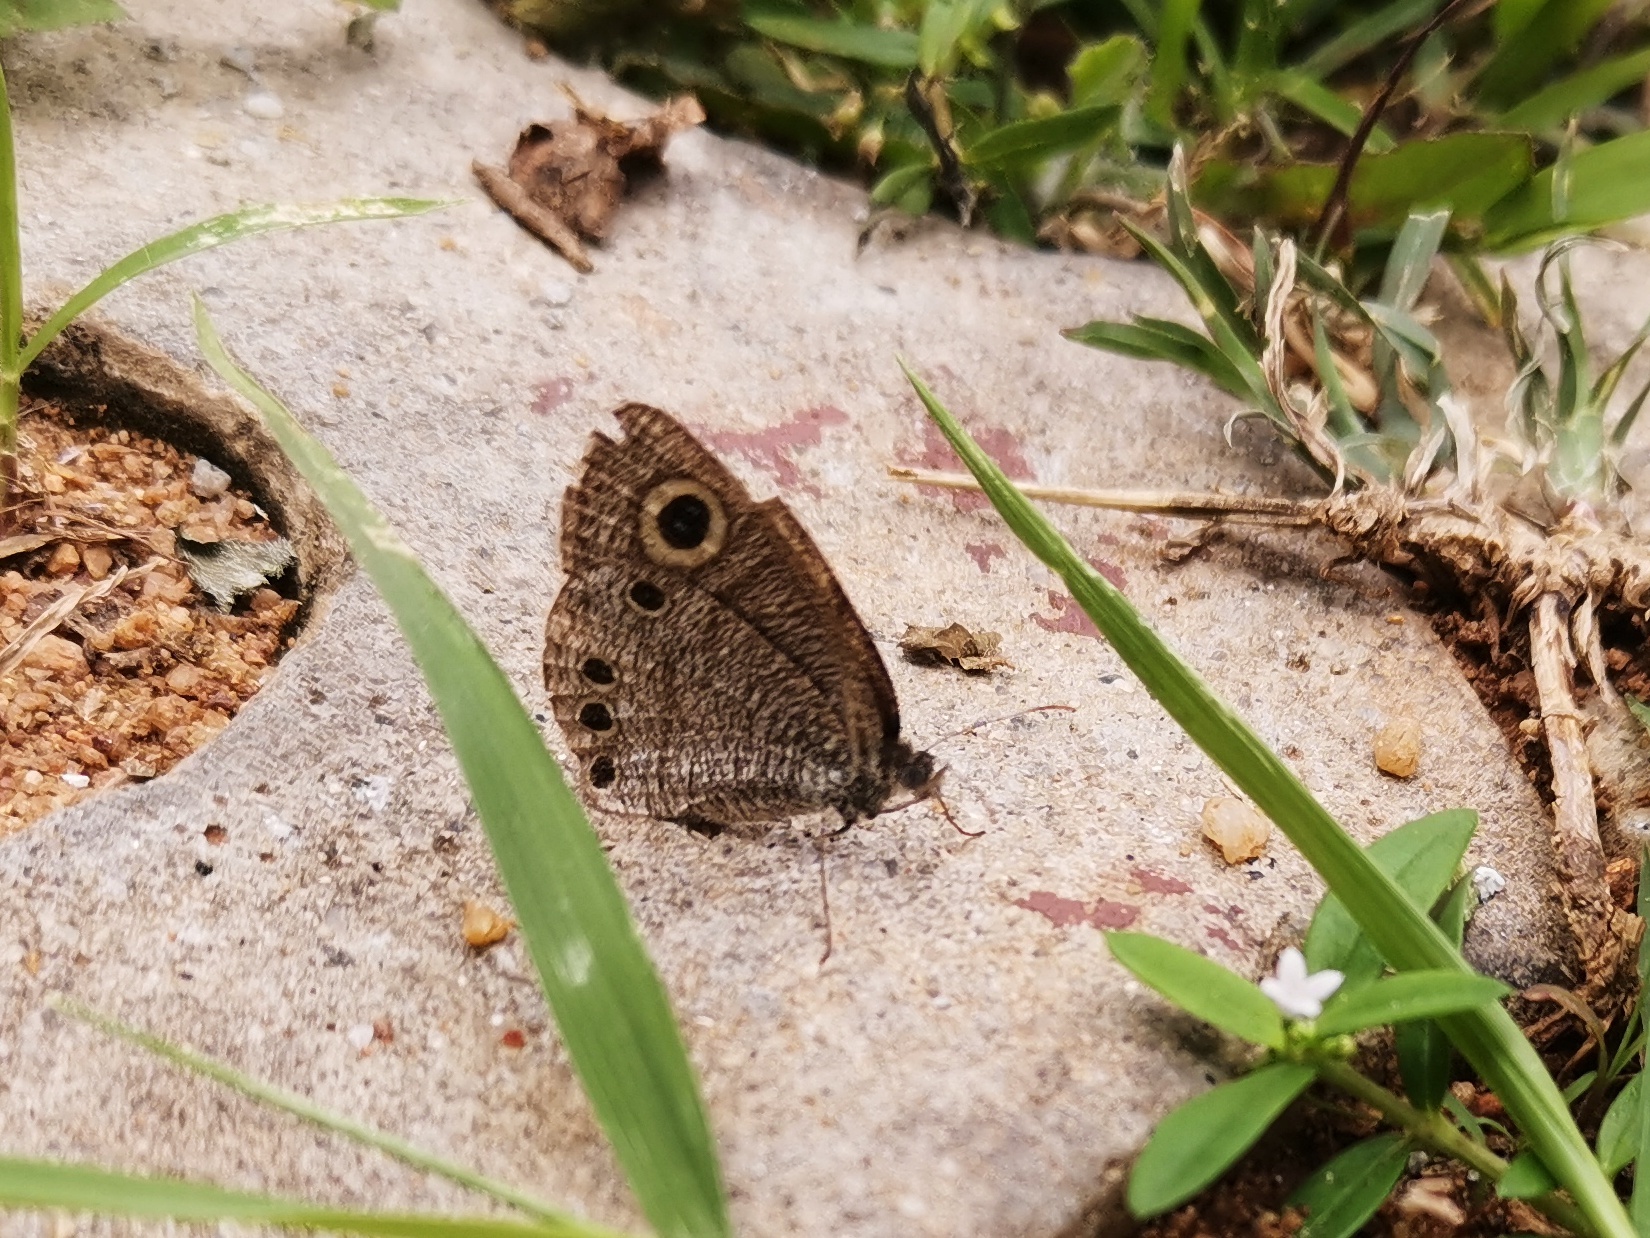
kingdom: Animalia
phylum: Arthropoda
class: Insecta
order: Lepidoptera
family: Nymphalidae
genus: Ypthima
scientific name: Ypthima huebneri
